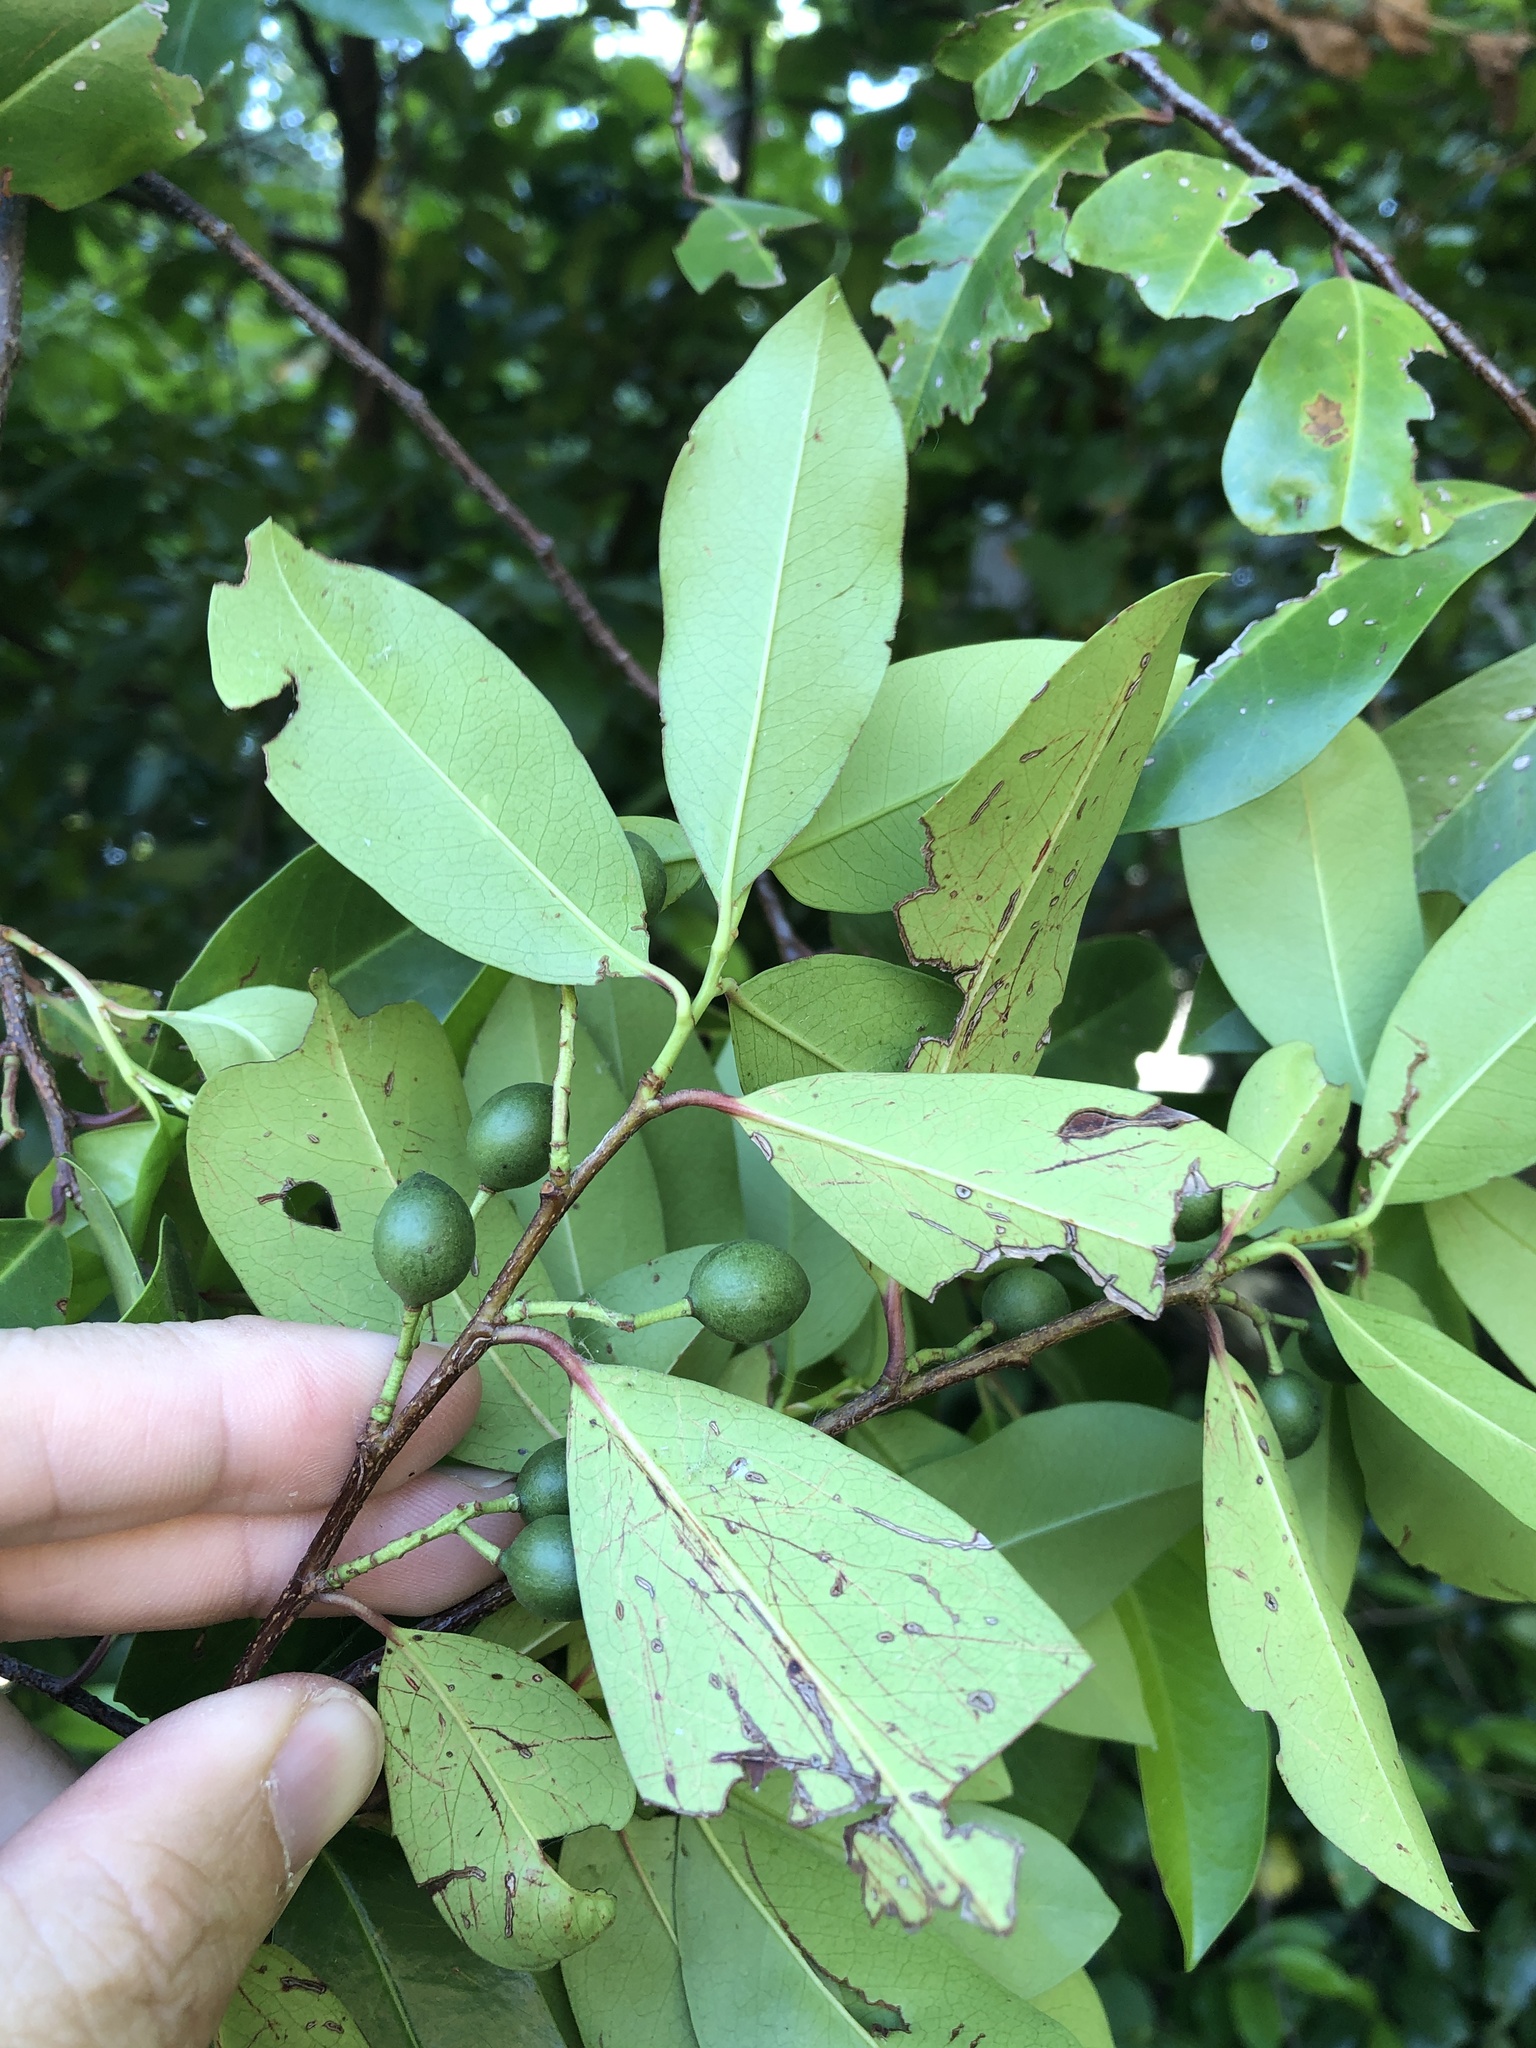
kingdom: Plantae
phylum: Tracheophyta
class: Magnoliopsida
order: Rosales
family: Rosaceae
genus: Prunus
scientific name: Prunus caroliniana
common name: Carolina laurel cherry
